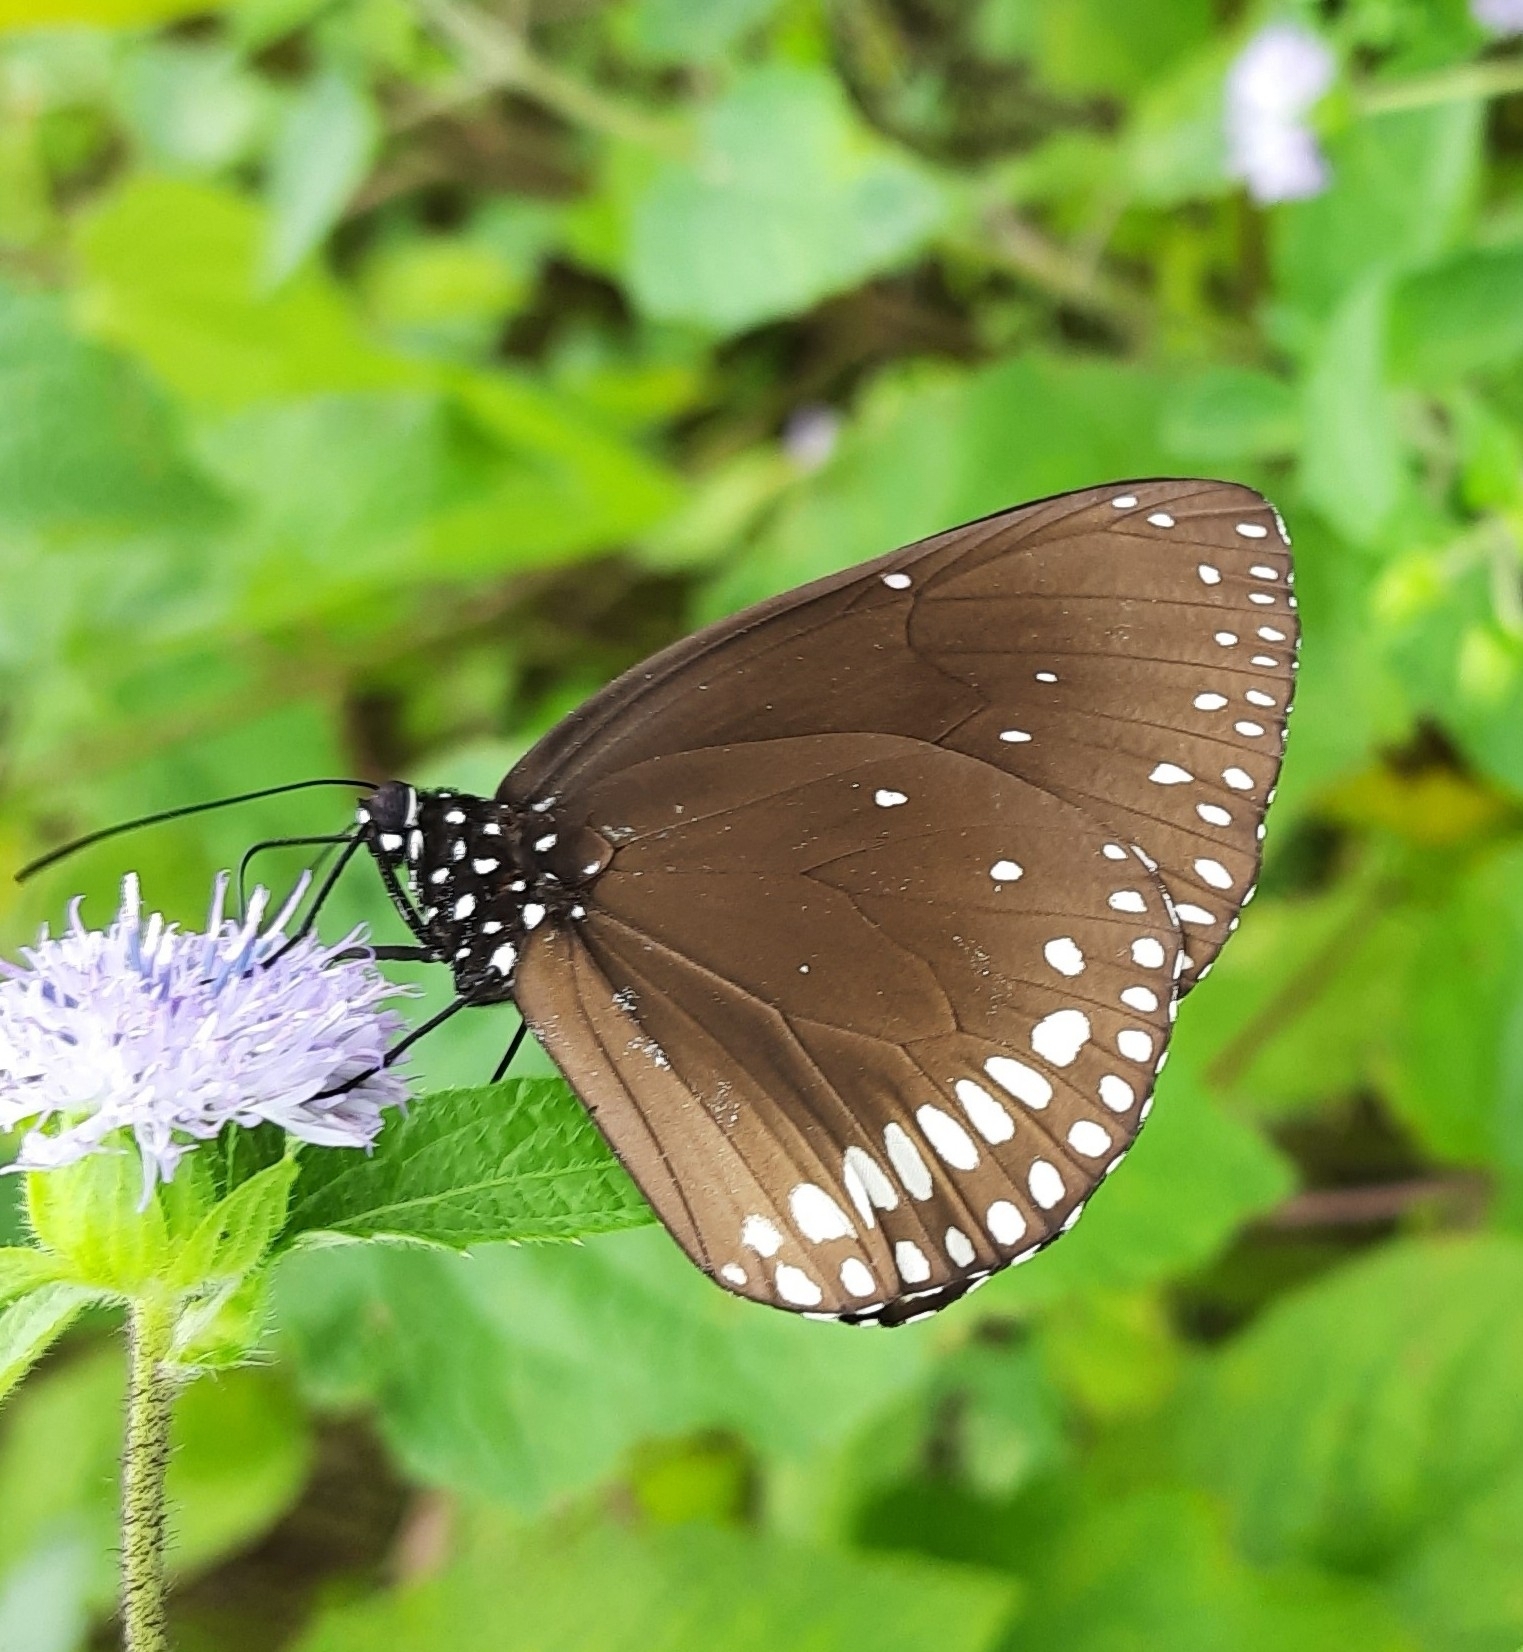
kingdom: Animalia
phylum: Arthropoda
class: Insecta
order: Lepidoptera
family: Nymphalidae
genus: Euploea
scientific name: Euploea klugii
